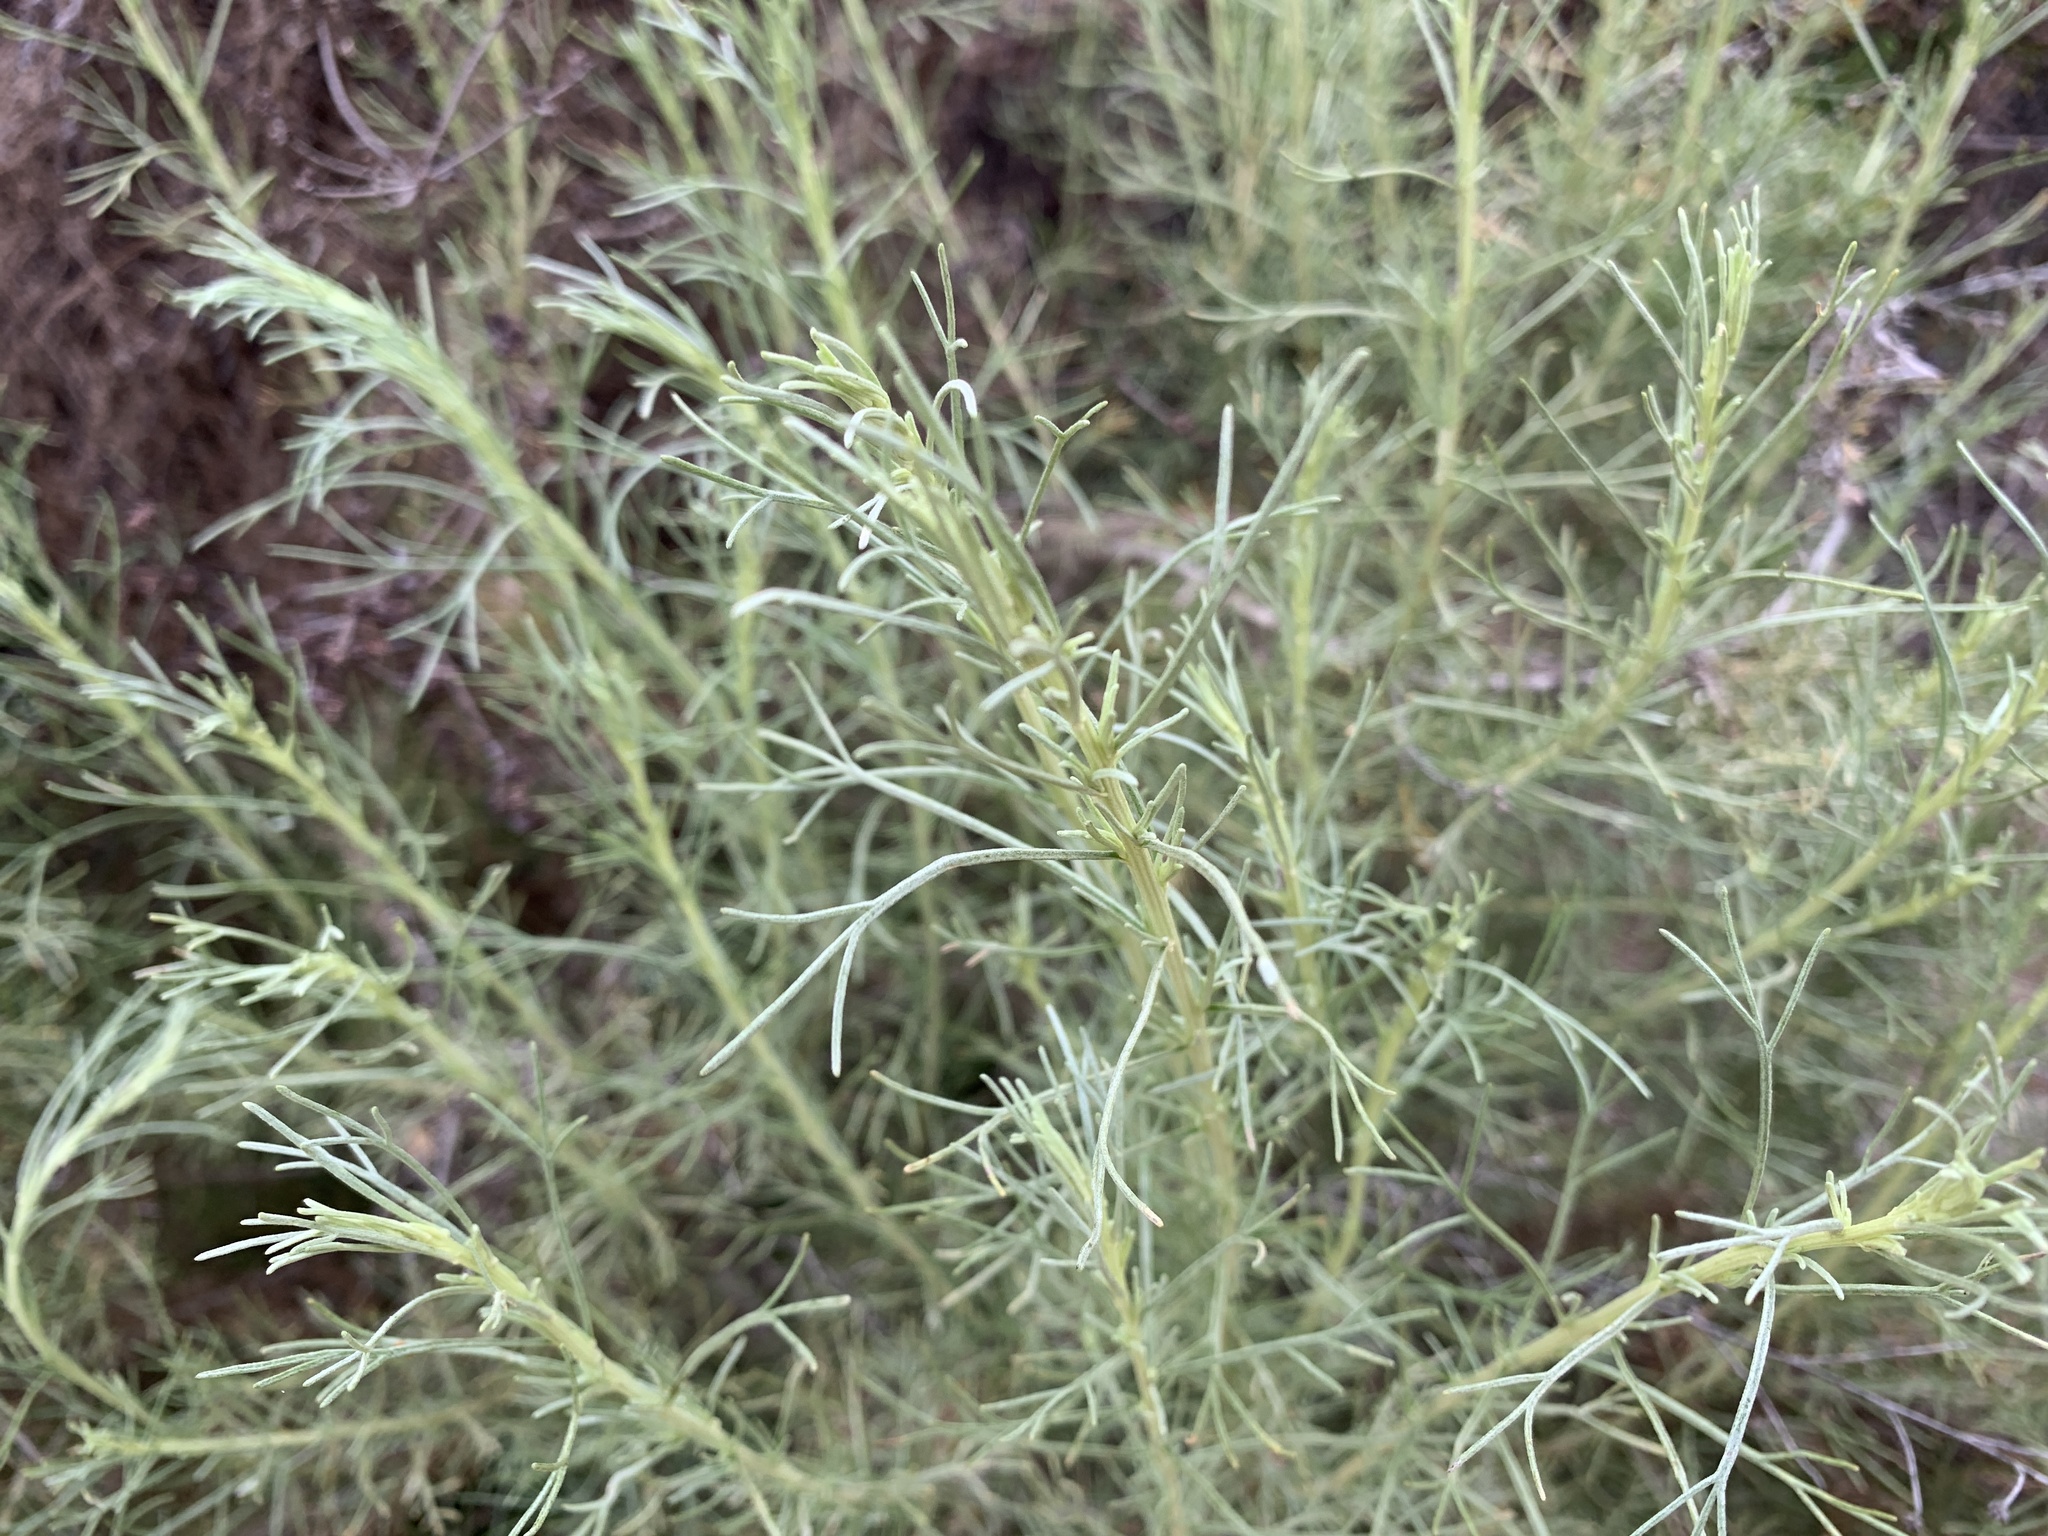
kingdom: Plantae
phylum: Tracheophyta
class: Magnoliopsida
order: Asterales
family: Asteraceae
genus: Artemisia
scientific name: Artemisia californica
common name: California sagebrush
